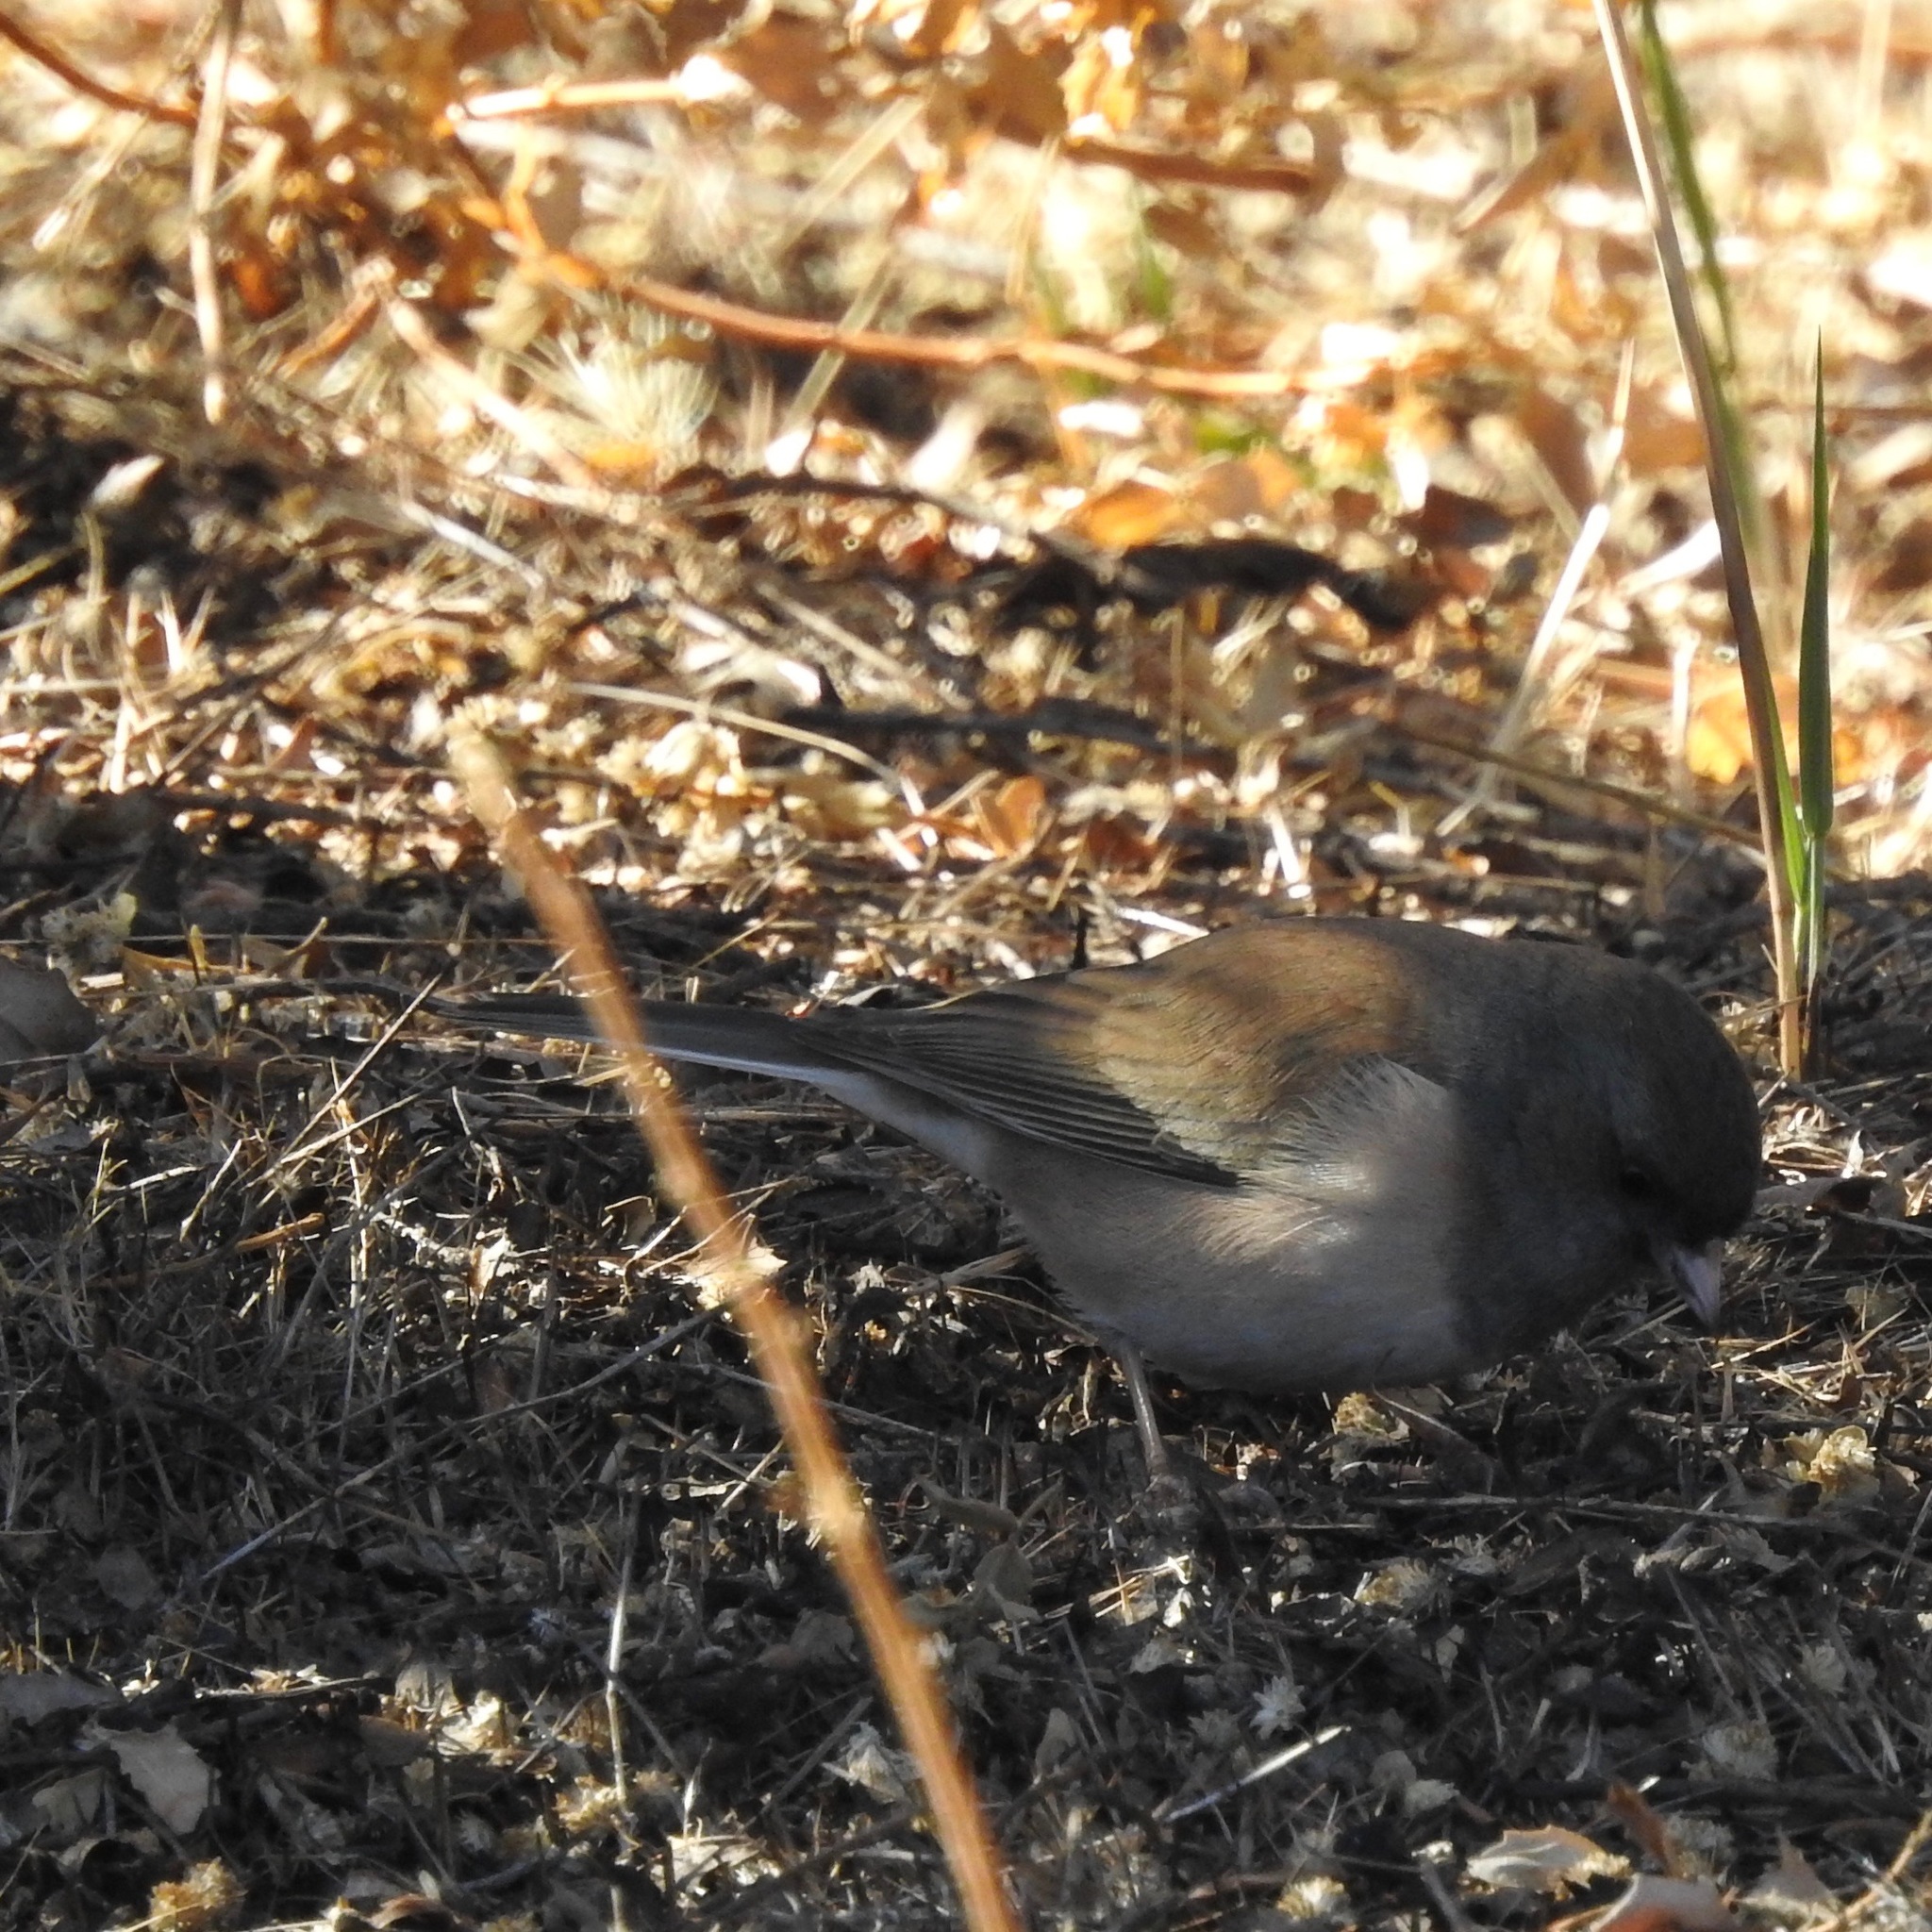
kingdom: Animalia
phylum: Chordata
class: Aves
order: Passeriformes
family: Passerellidae
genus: Junco
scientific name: Junco hyemalis
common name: Dark-eyed junco
